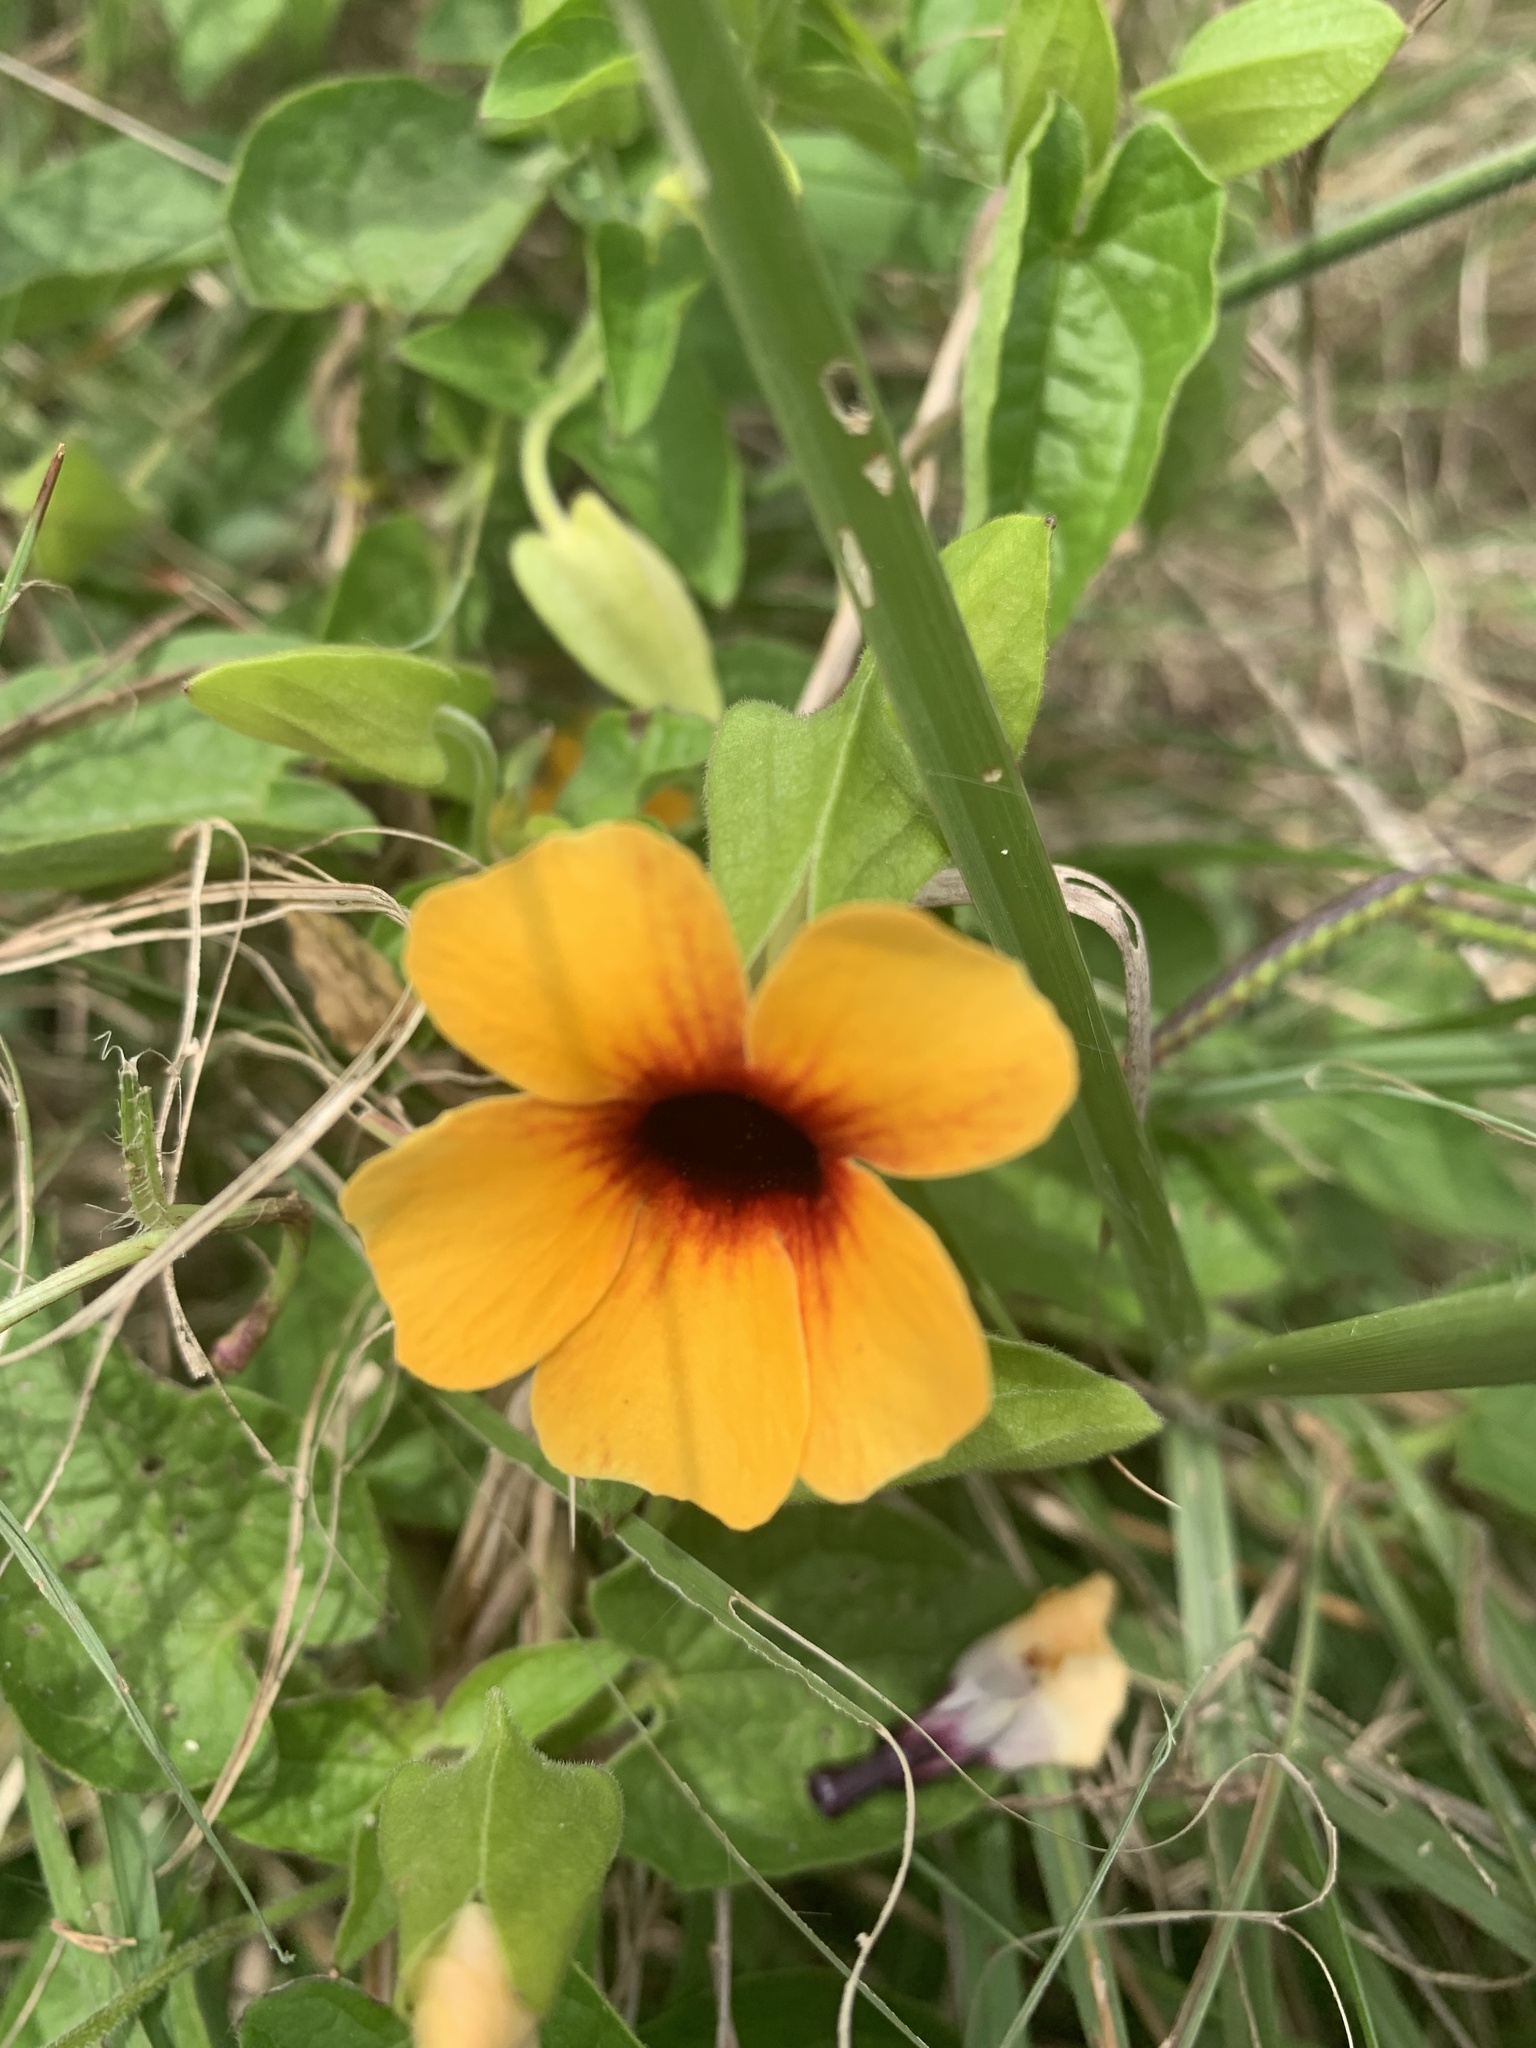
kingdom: Plantae
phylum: Tracheophyta
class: Magnoliopsida
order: Lamiales
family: Acanthaceae
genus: Thunbergia
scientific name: Thunbergia alata
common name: Blackeyed susan vine
